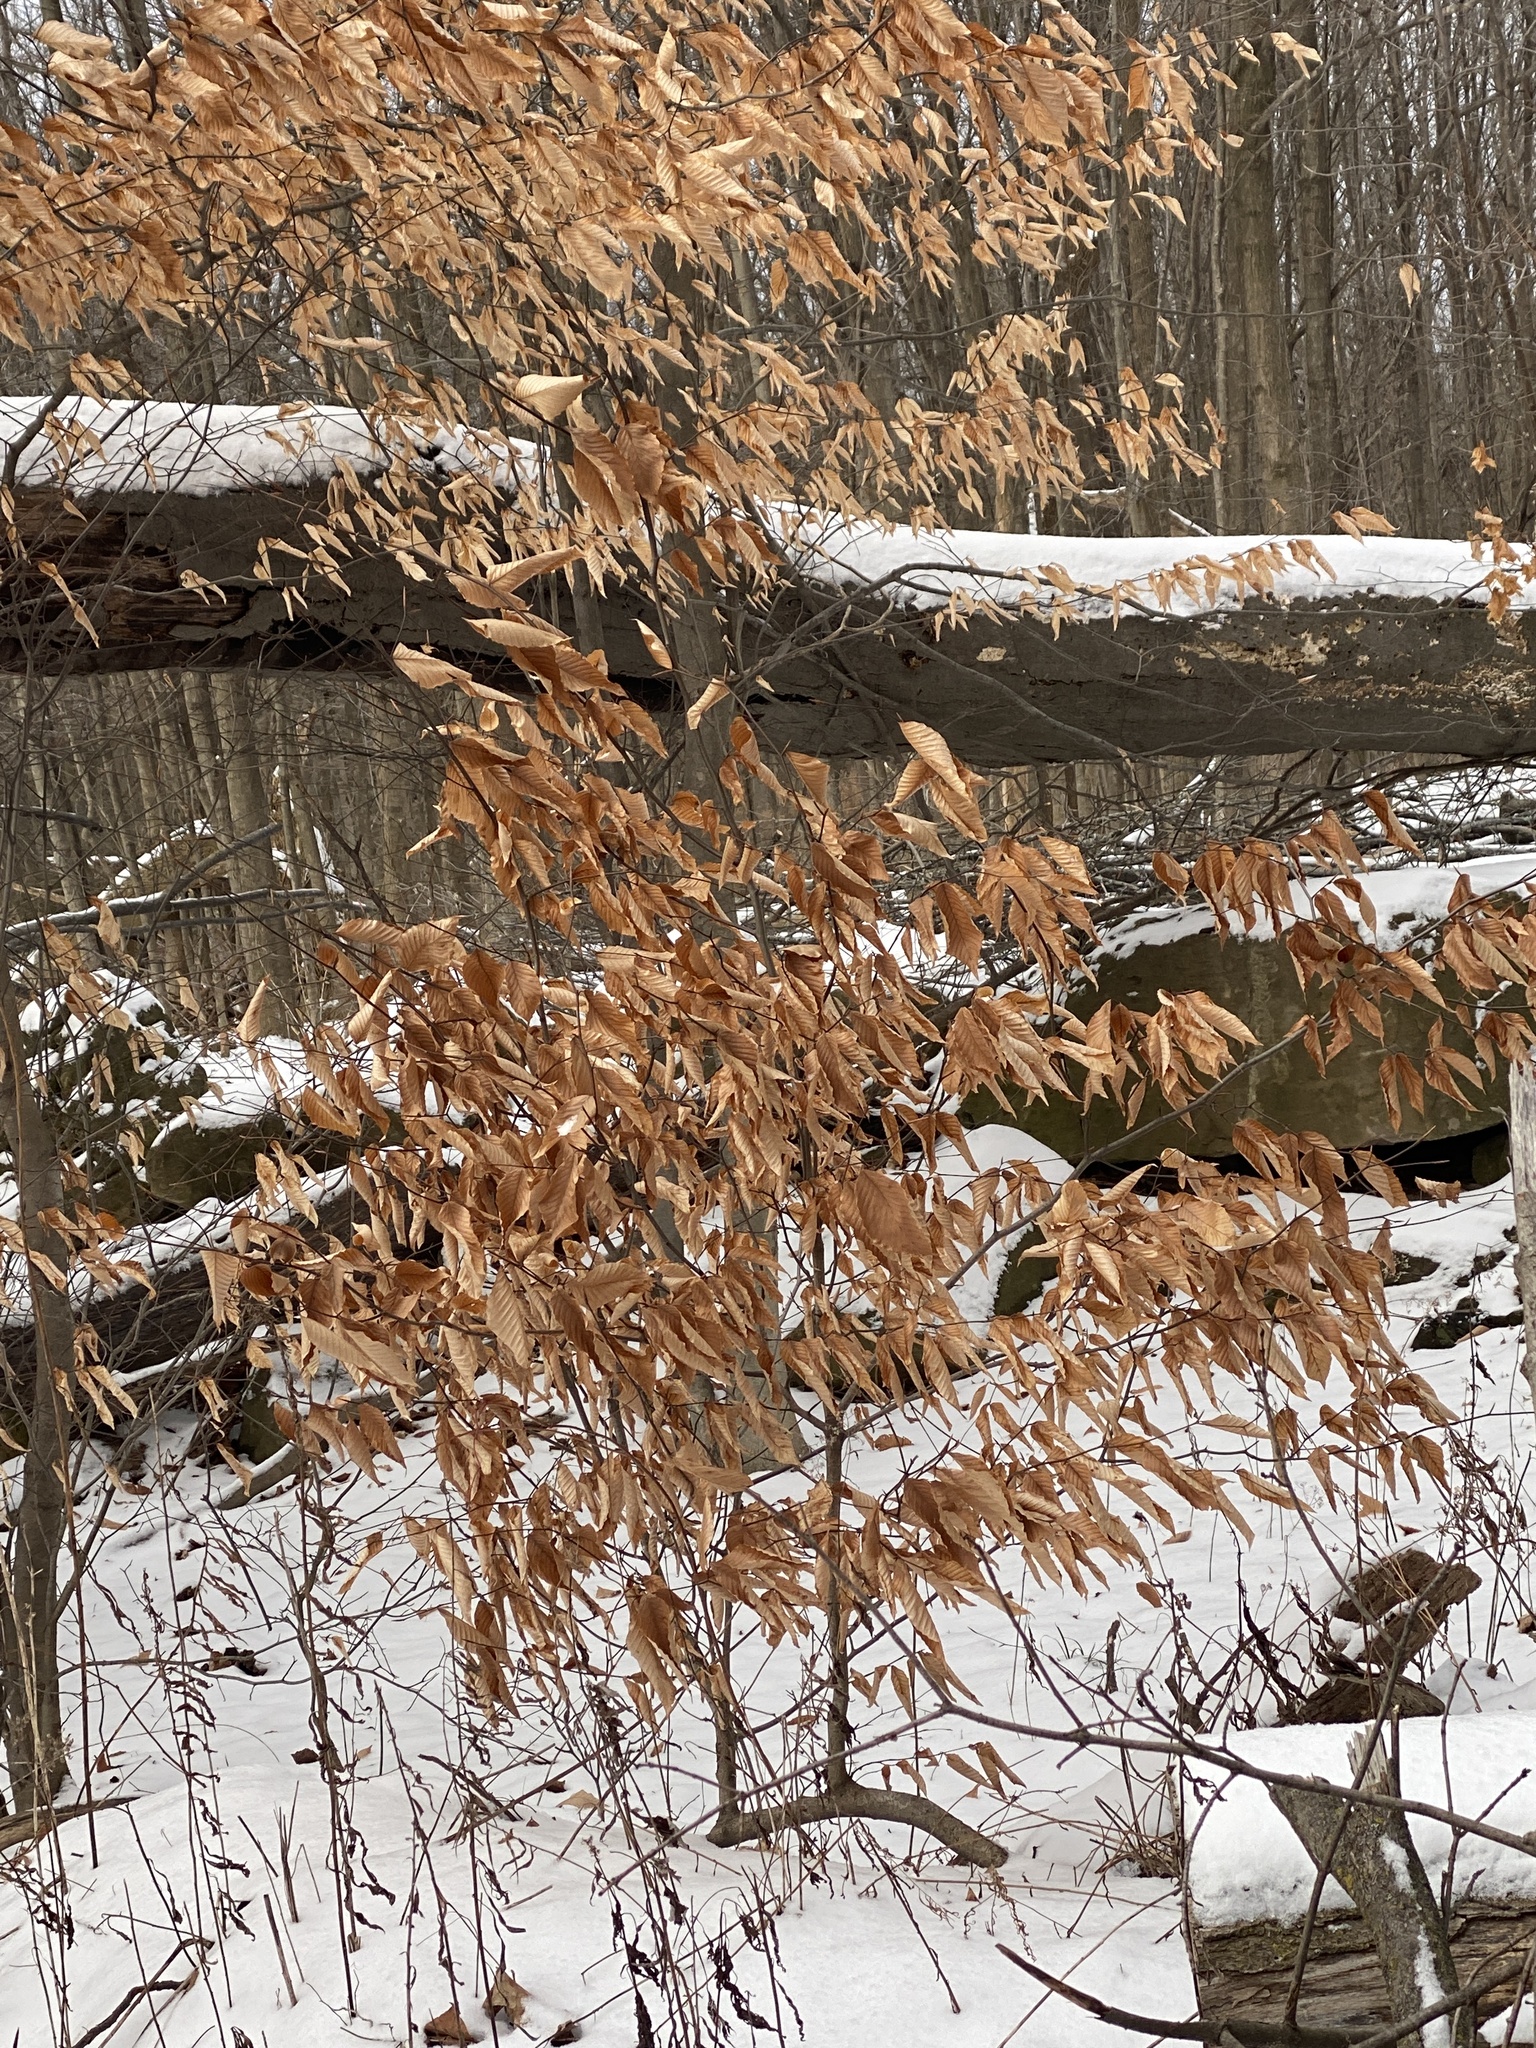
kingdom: Plantae
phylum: Tracheophyta
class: Magnoliopsida
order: Fagales
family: Fagaceae
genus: Fagus
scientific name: Fagus grandifolia
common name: American beech
